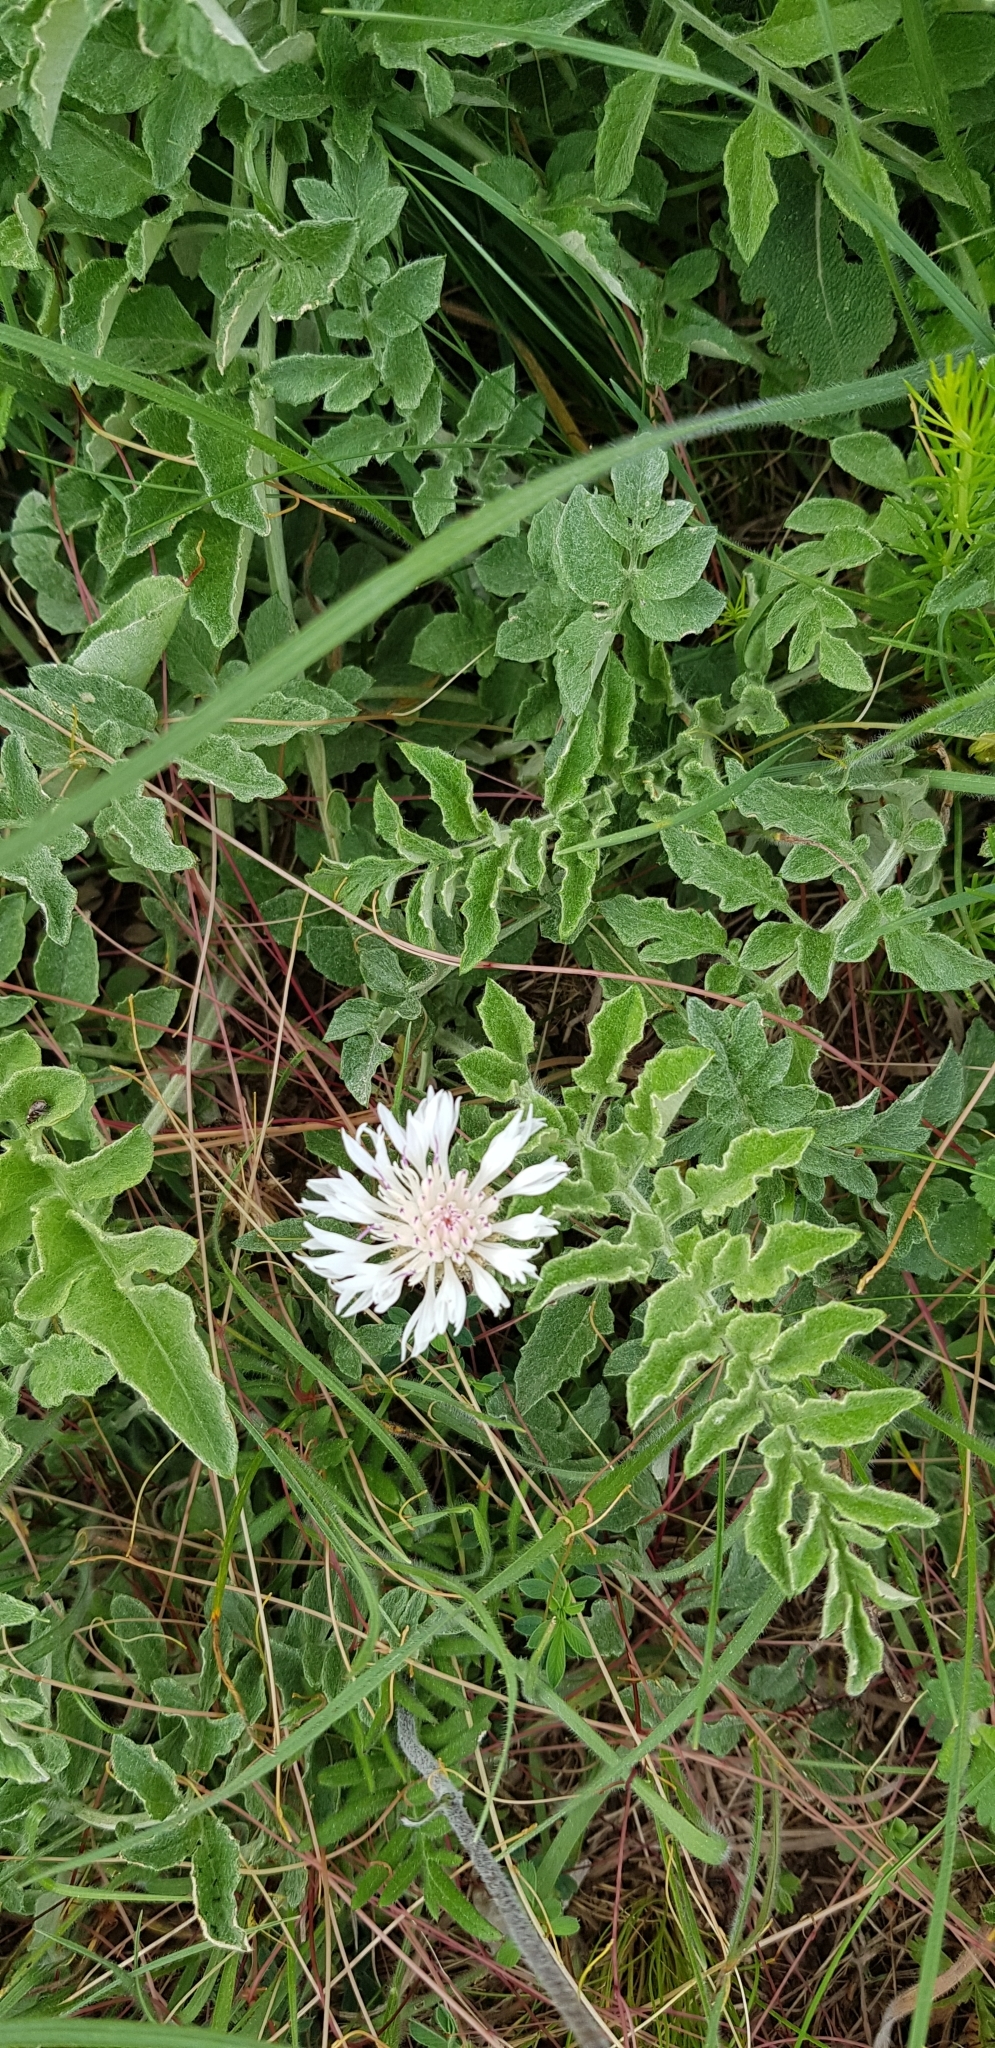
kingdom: Plantae
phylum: Tracheophyta
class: Magnoliopsida
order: Asterales
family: Asteraceae
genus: Psephellus
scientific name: Psephellus declinatus
